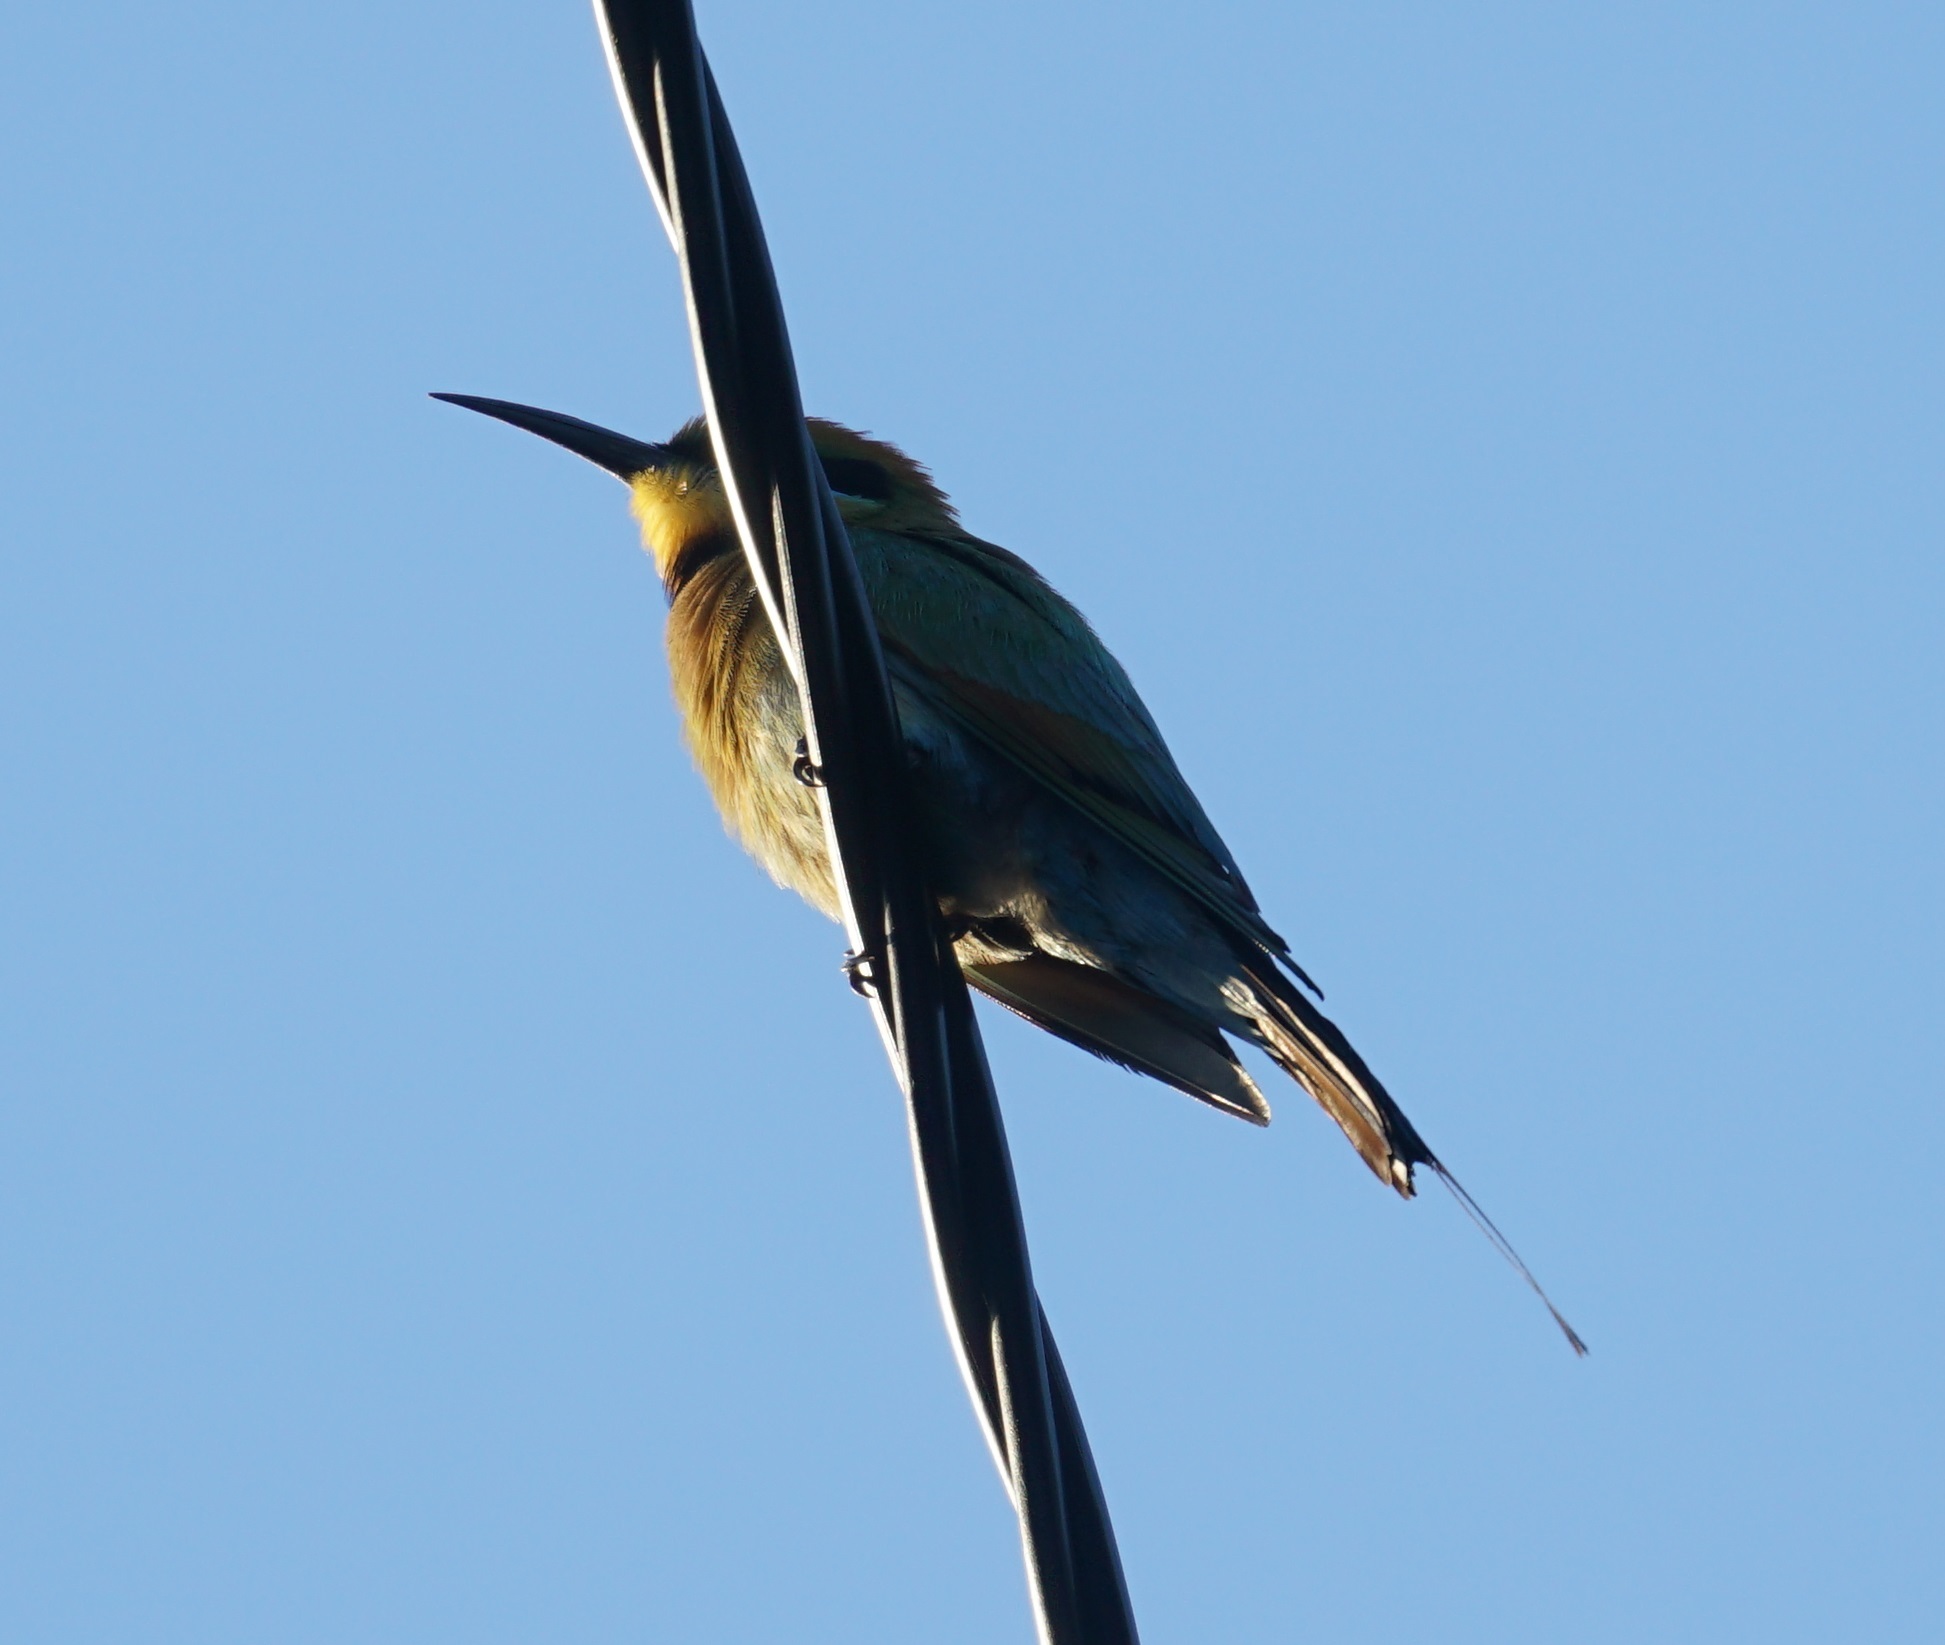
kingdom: Animalia
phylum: Chordata
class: Aves
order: Coraciiformes
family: Meropidae
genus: Merops
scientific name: Merops ornatus
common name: Rainbow bee-eater
